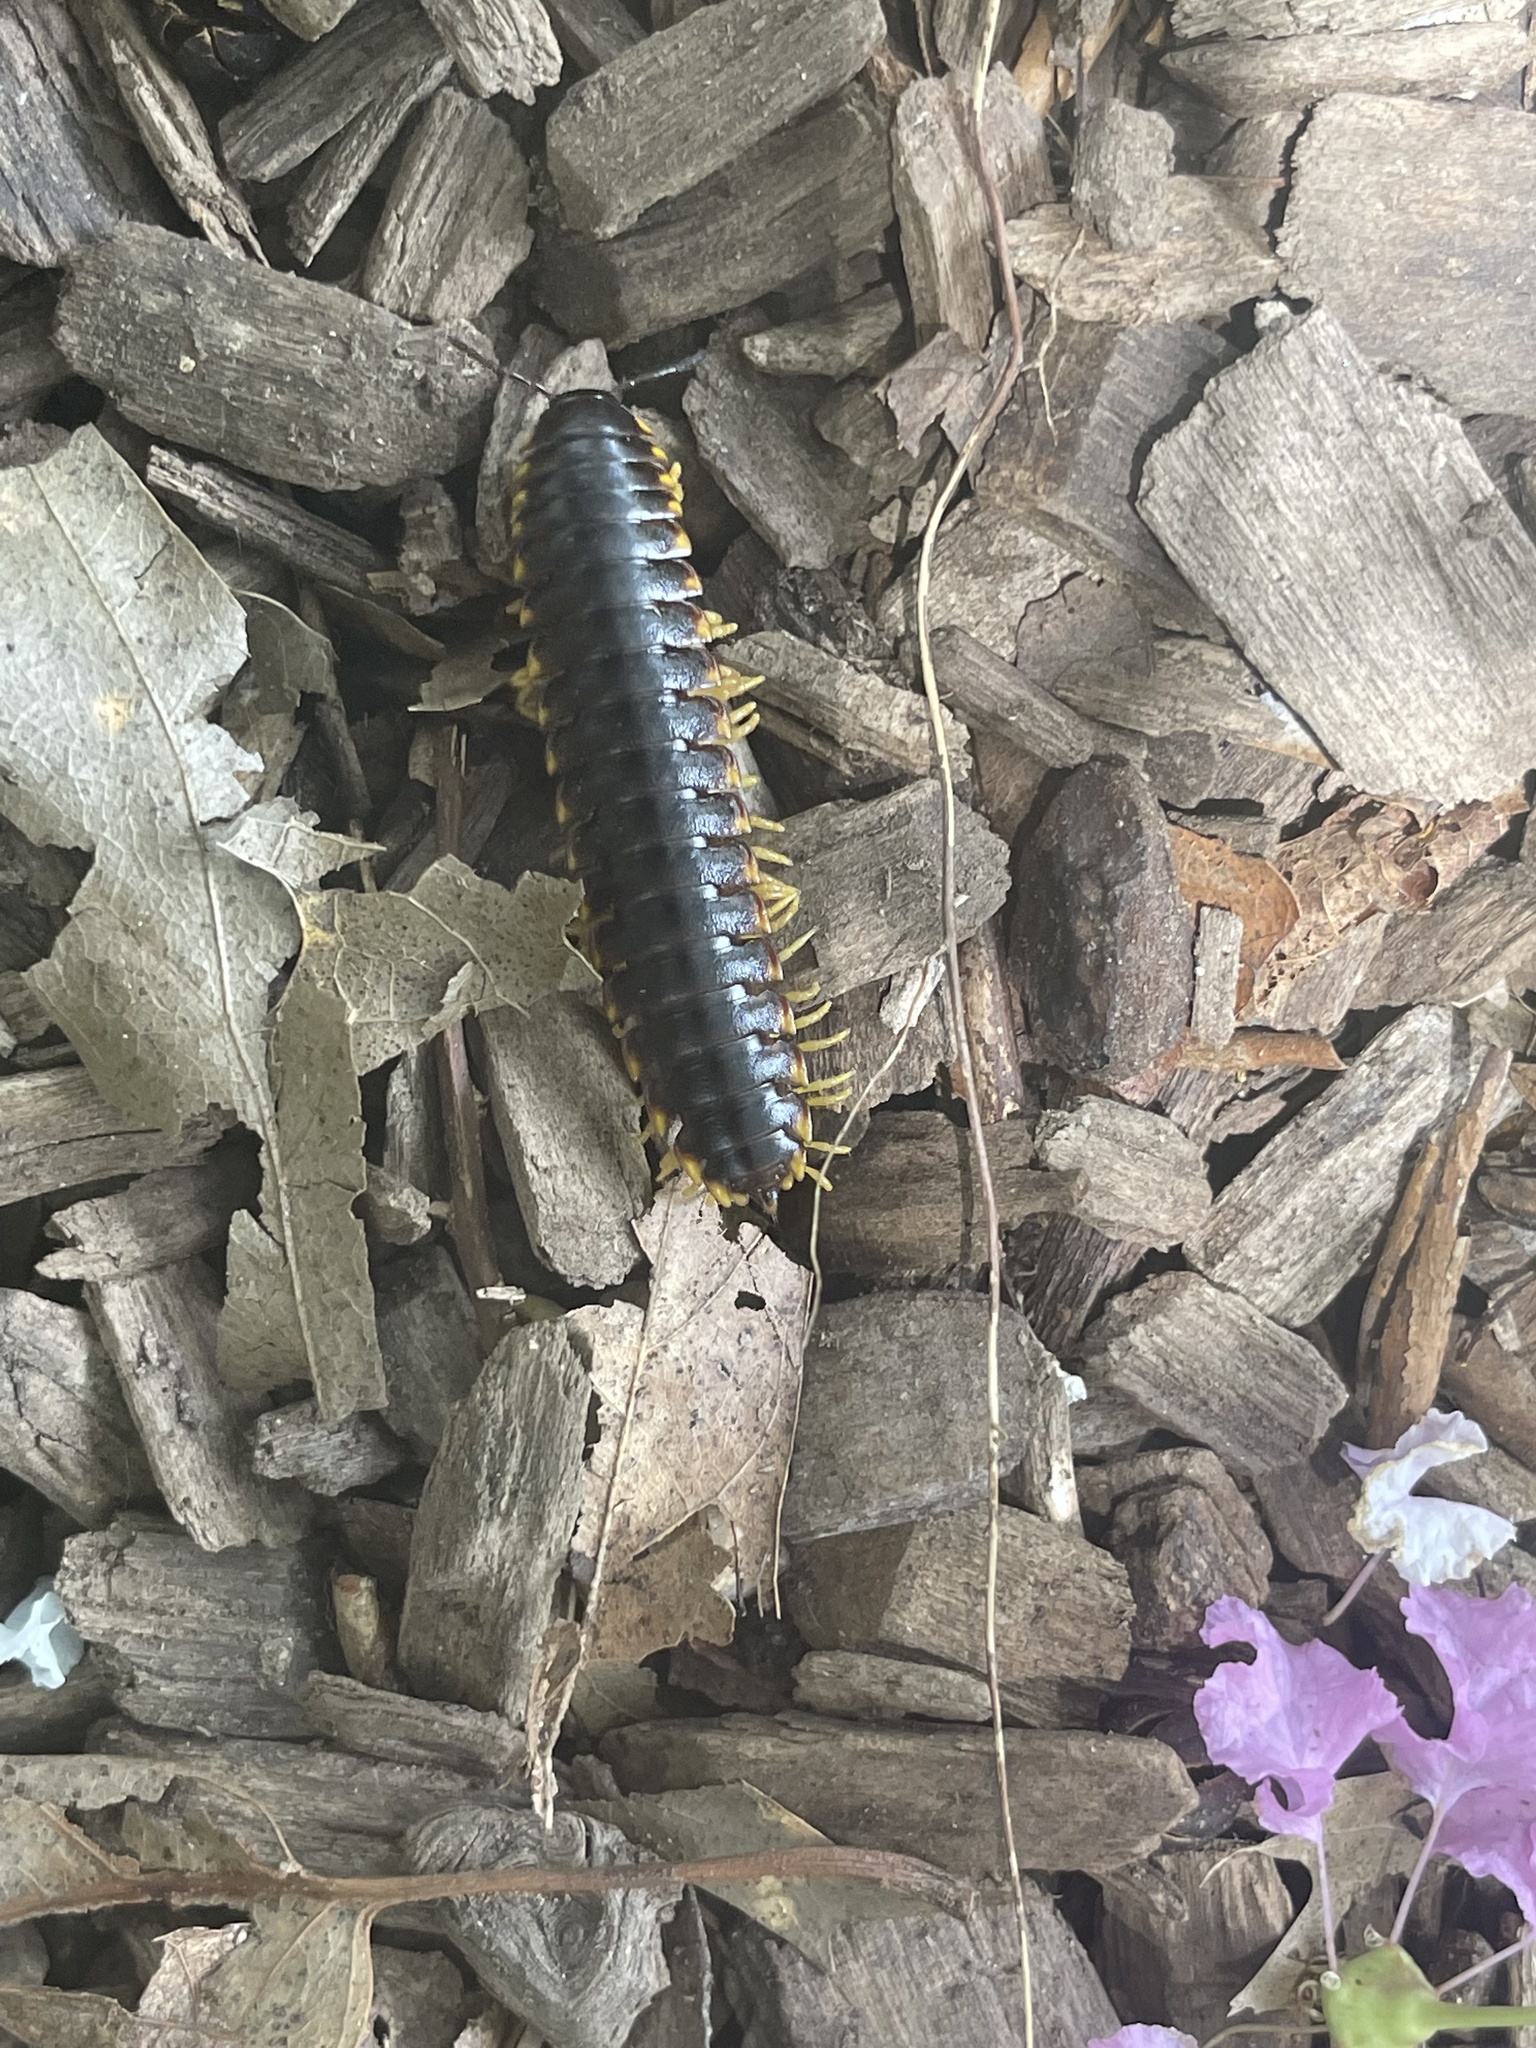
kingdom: Animalia
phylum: Arthropoda
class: Diplopoda
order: Polydesmida
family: Xystodesmidae
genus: Apheloria
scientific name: Apheloria tigana
